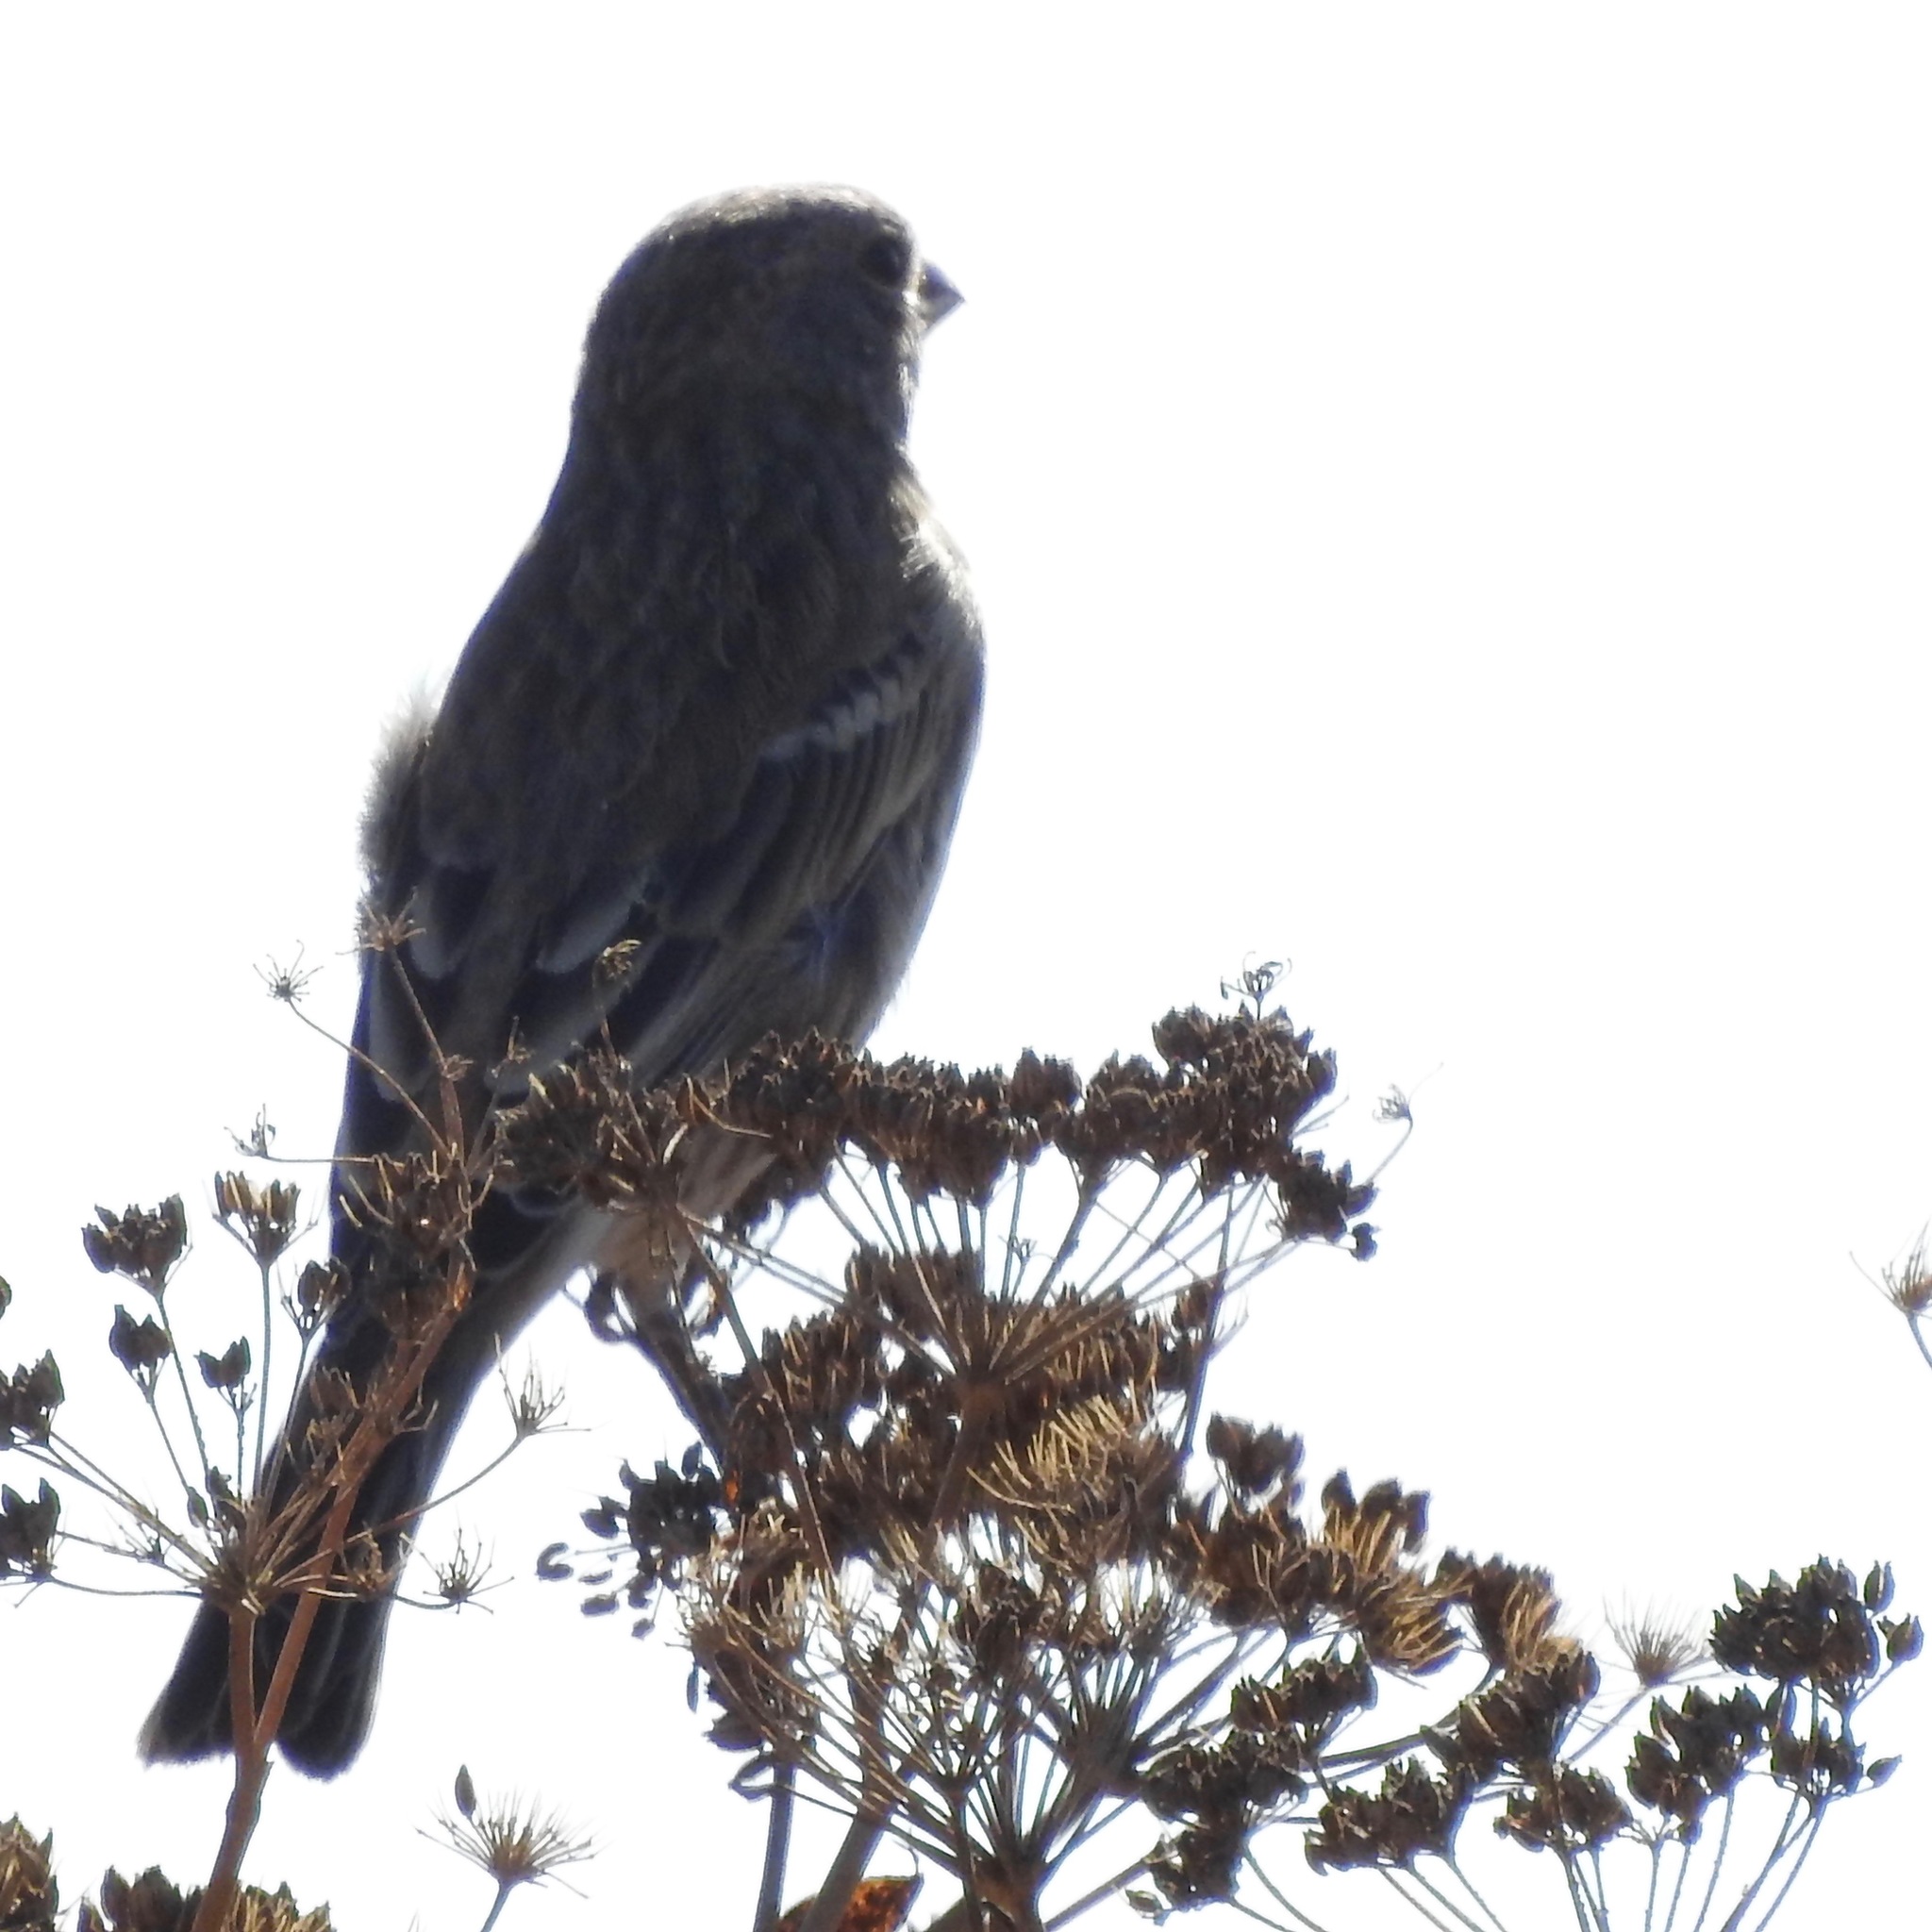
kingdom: Animalia
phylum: Chordata
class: Aves
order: Passeriformes
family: Fringillidae
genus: Haemorhous
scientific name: Haemorhous mexicanus
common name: House finch
